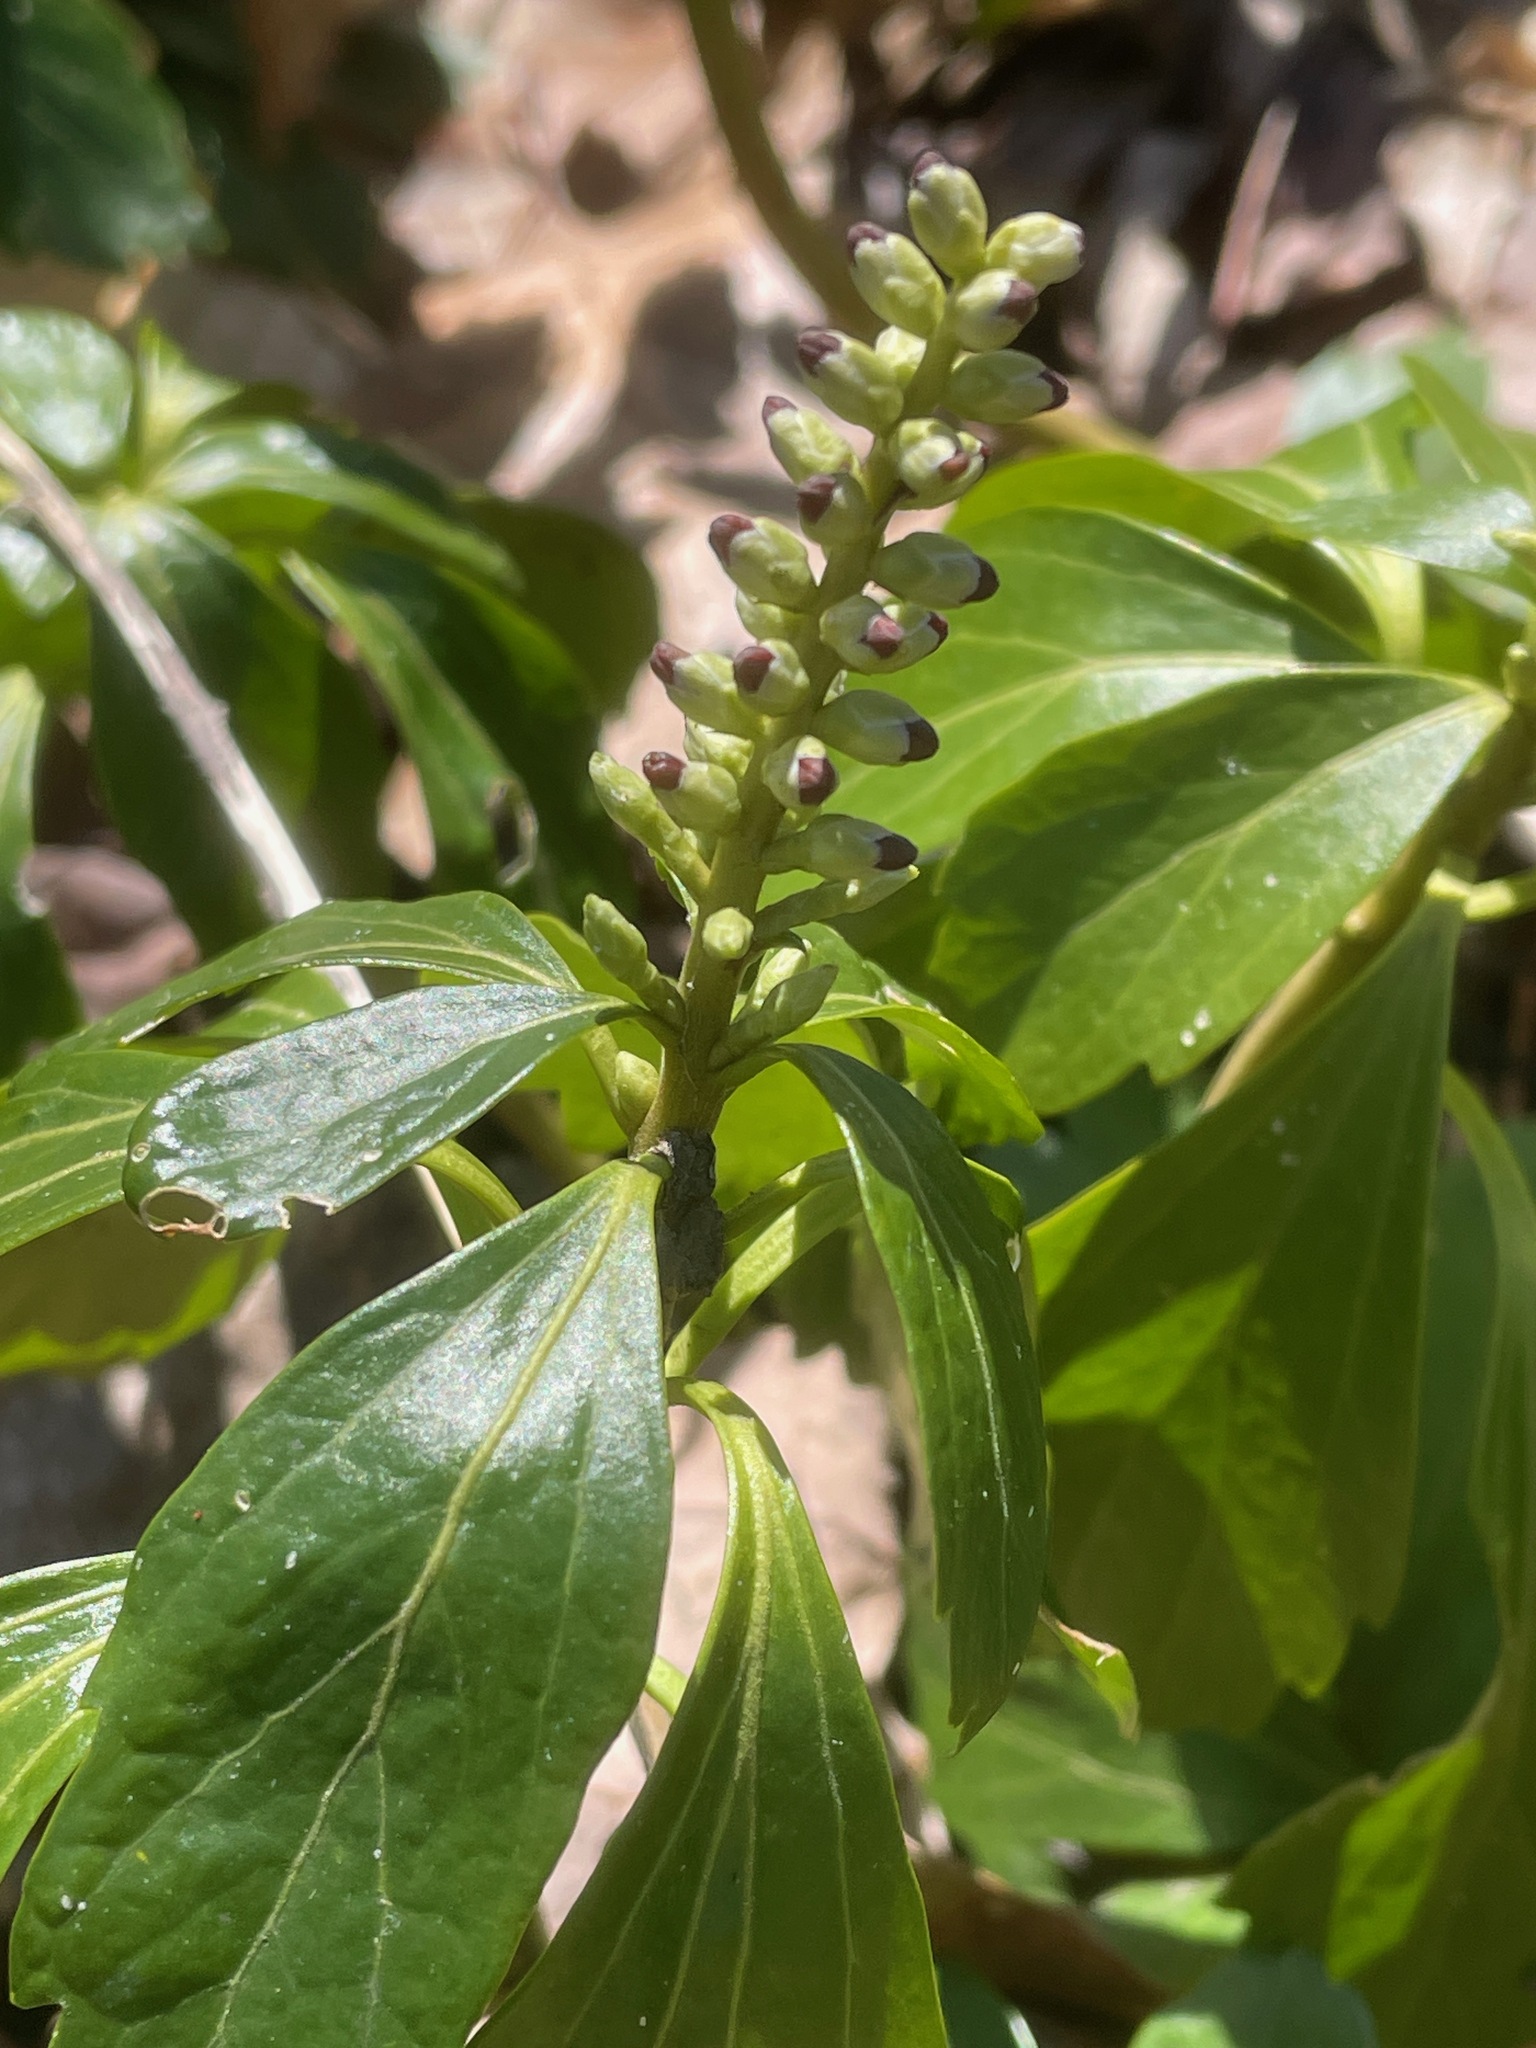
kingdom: Plantae
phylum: Tracheophyta
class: Magnoliopsida
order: Buxales
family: Buxaceae
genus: Pachysandra
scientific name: Pachysandra terminalis
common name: Japanese pachysandra
